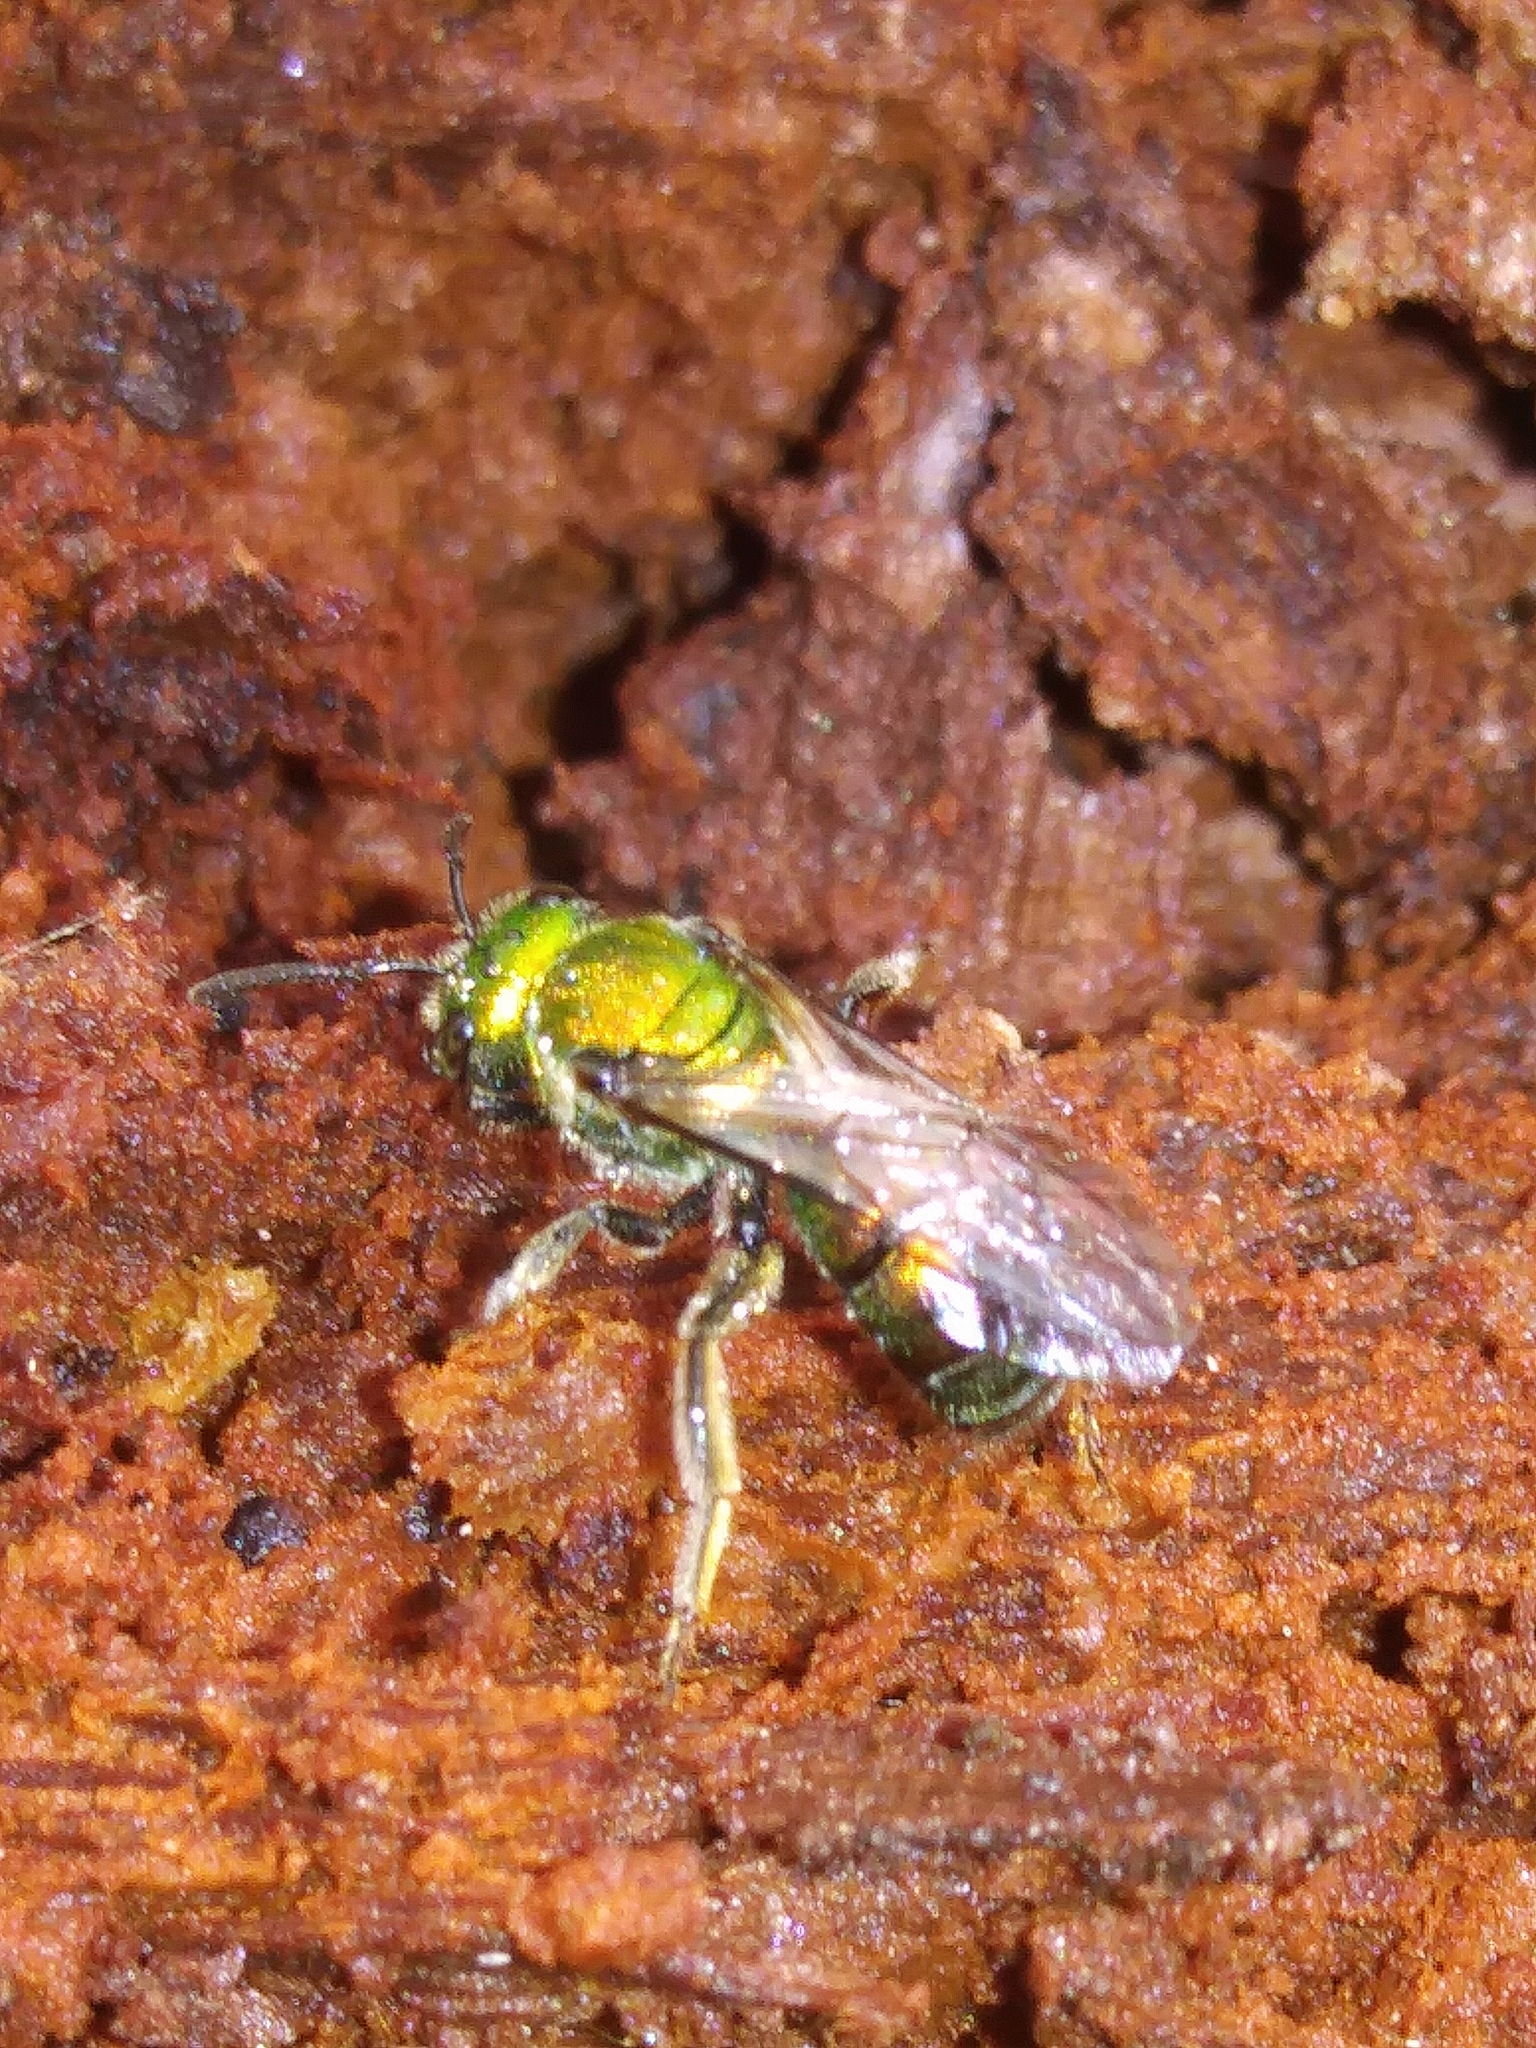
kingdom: Animalia
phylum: Arthropoda
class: Insecta
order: Hymenoptera
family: Halictidae
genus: Augochlora
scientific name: Augochlora pura
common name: Pure green sweat bee
